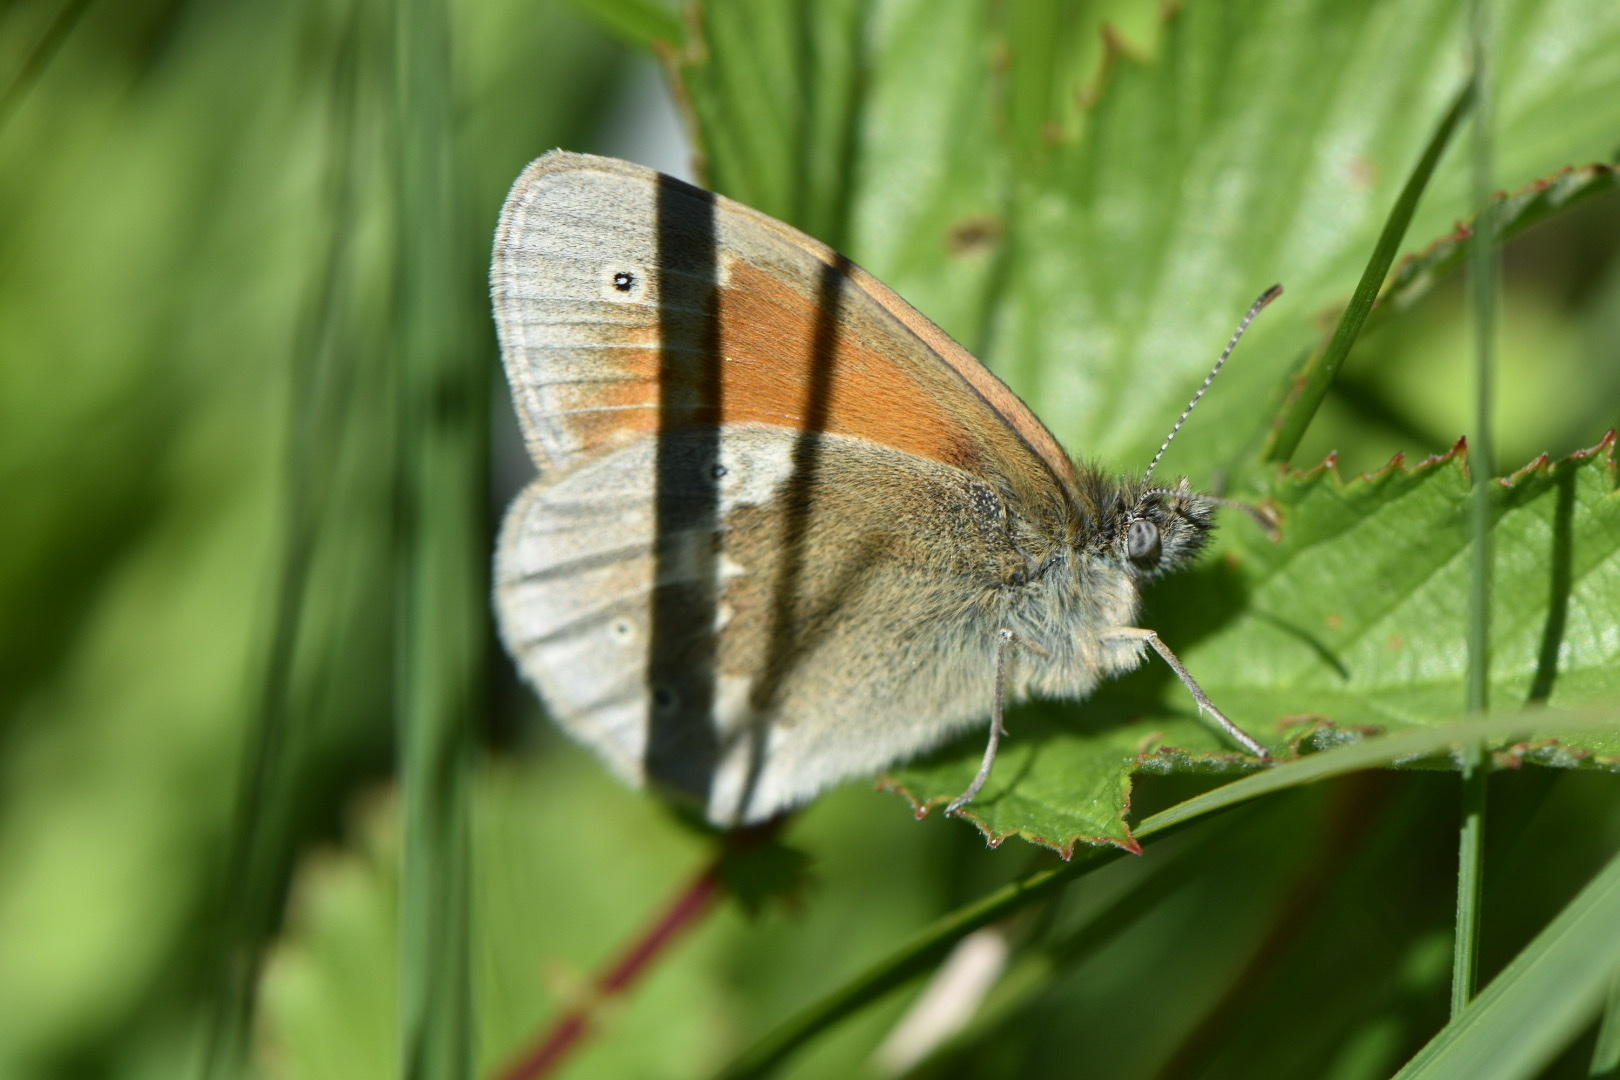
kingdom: Animalia
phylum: Arthropoda
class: Insecta
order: Lepidoptera
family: Nymphalidae
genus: Coenonympha
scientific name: Coenonympha tullia
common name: Large heath
